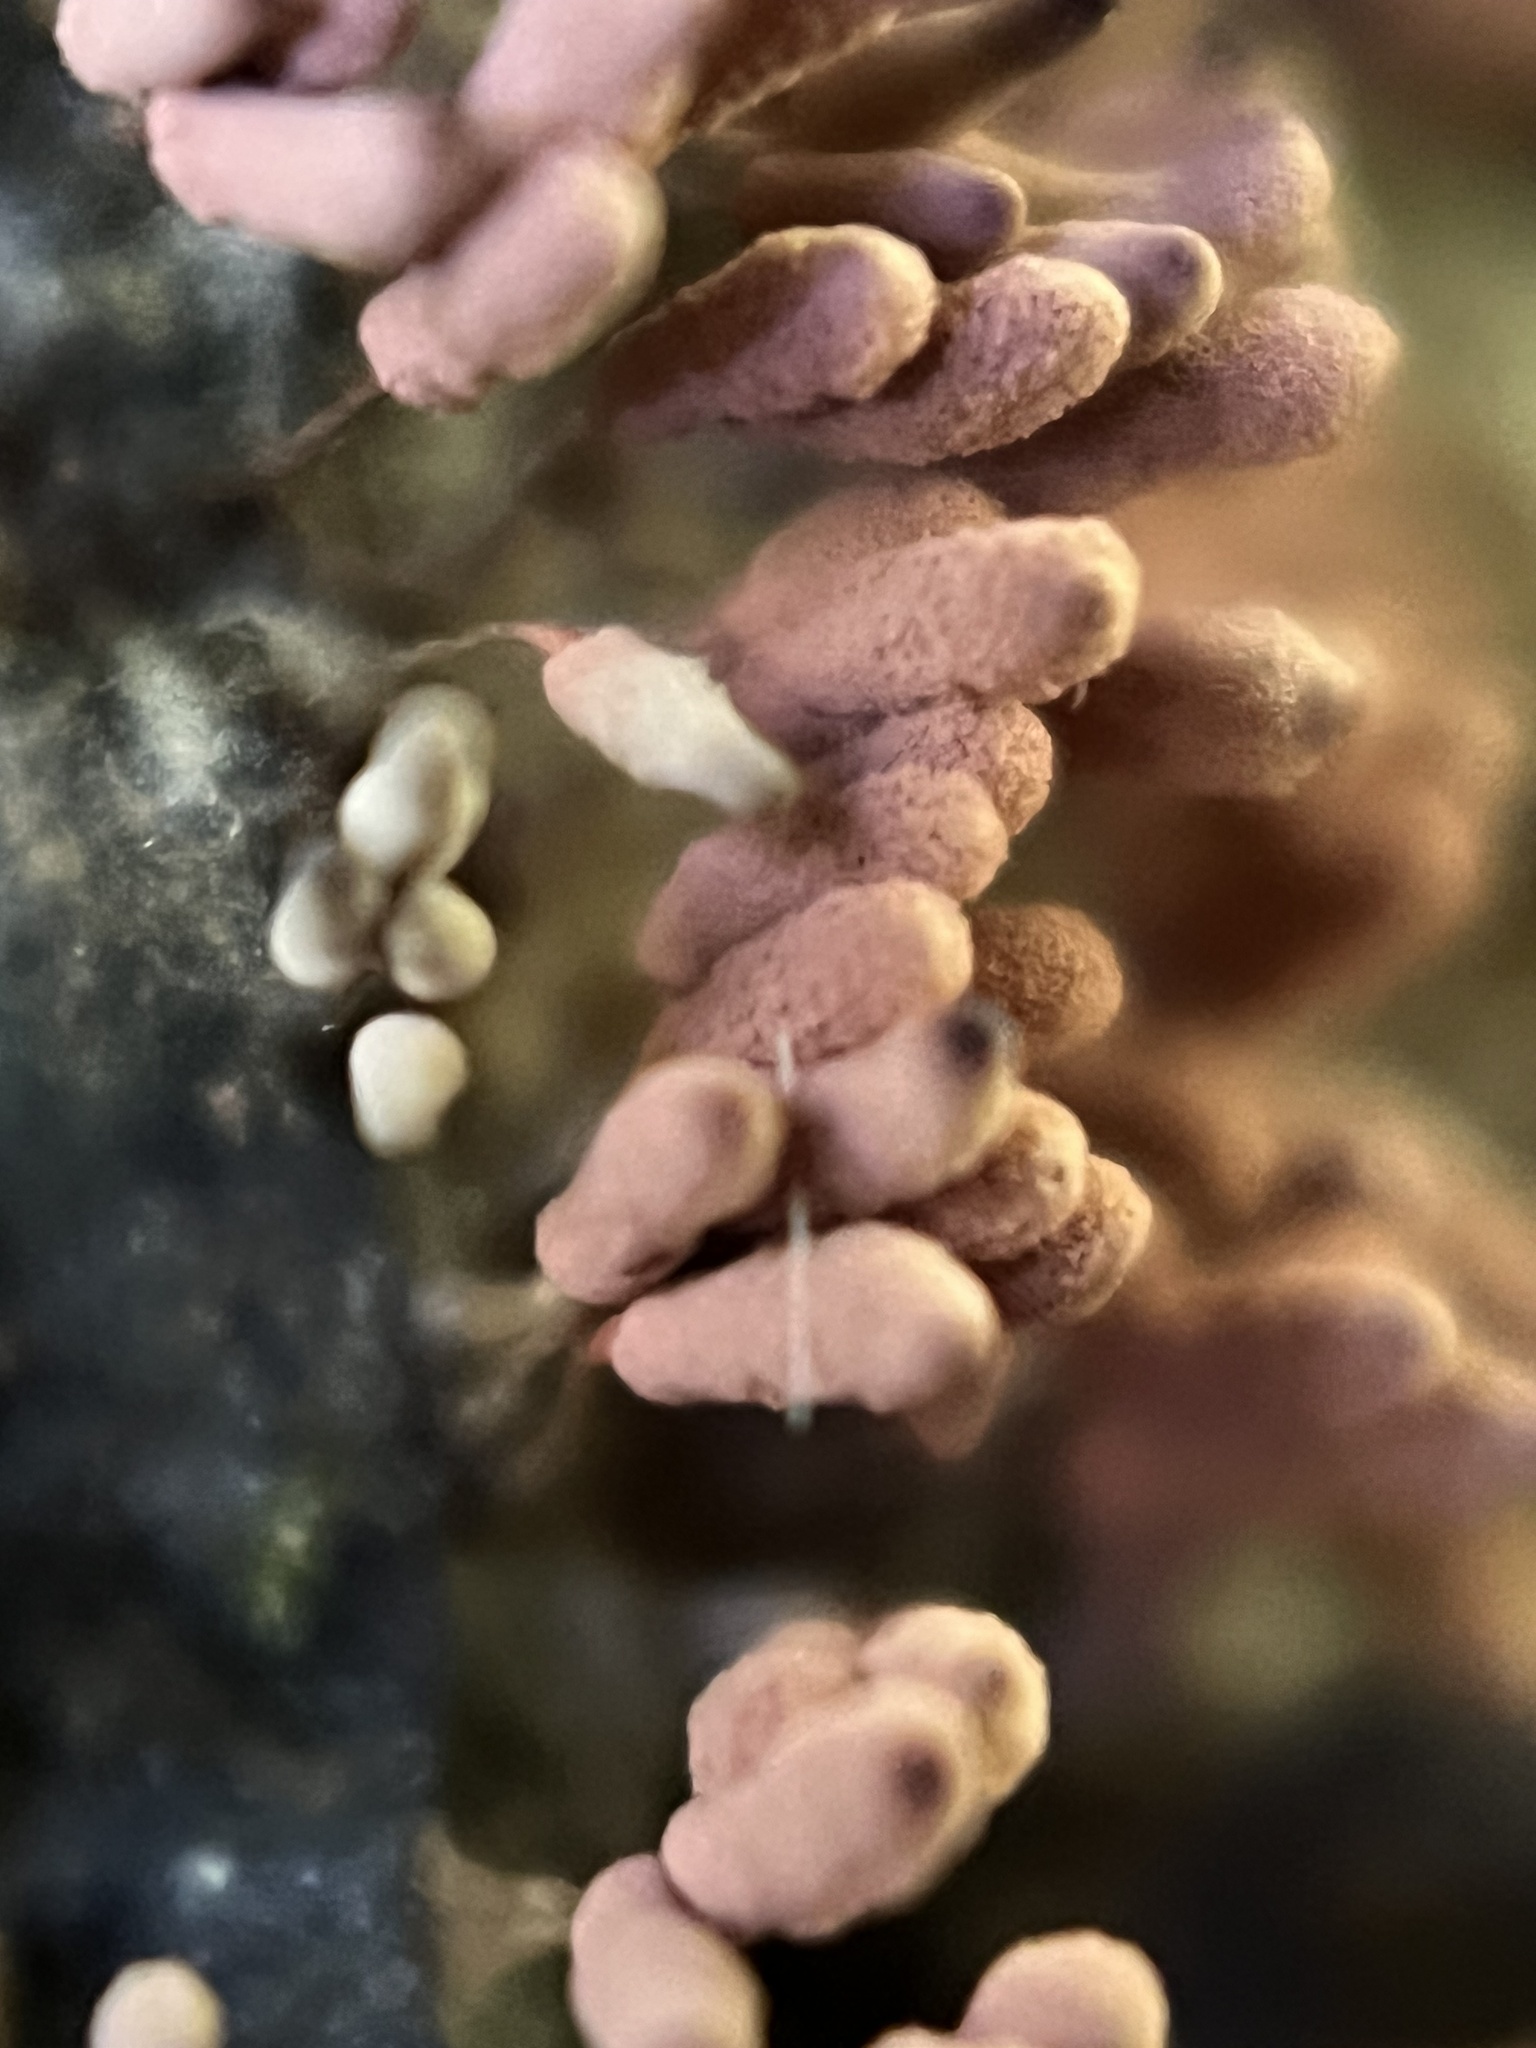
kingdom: Protozoa
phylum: Mycetozoa
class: Myxomycetes
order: Trichiales
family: Arcyriaceae
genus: Arcyria
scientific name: Arcyria denudata
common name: Carnival candy slime mold
